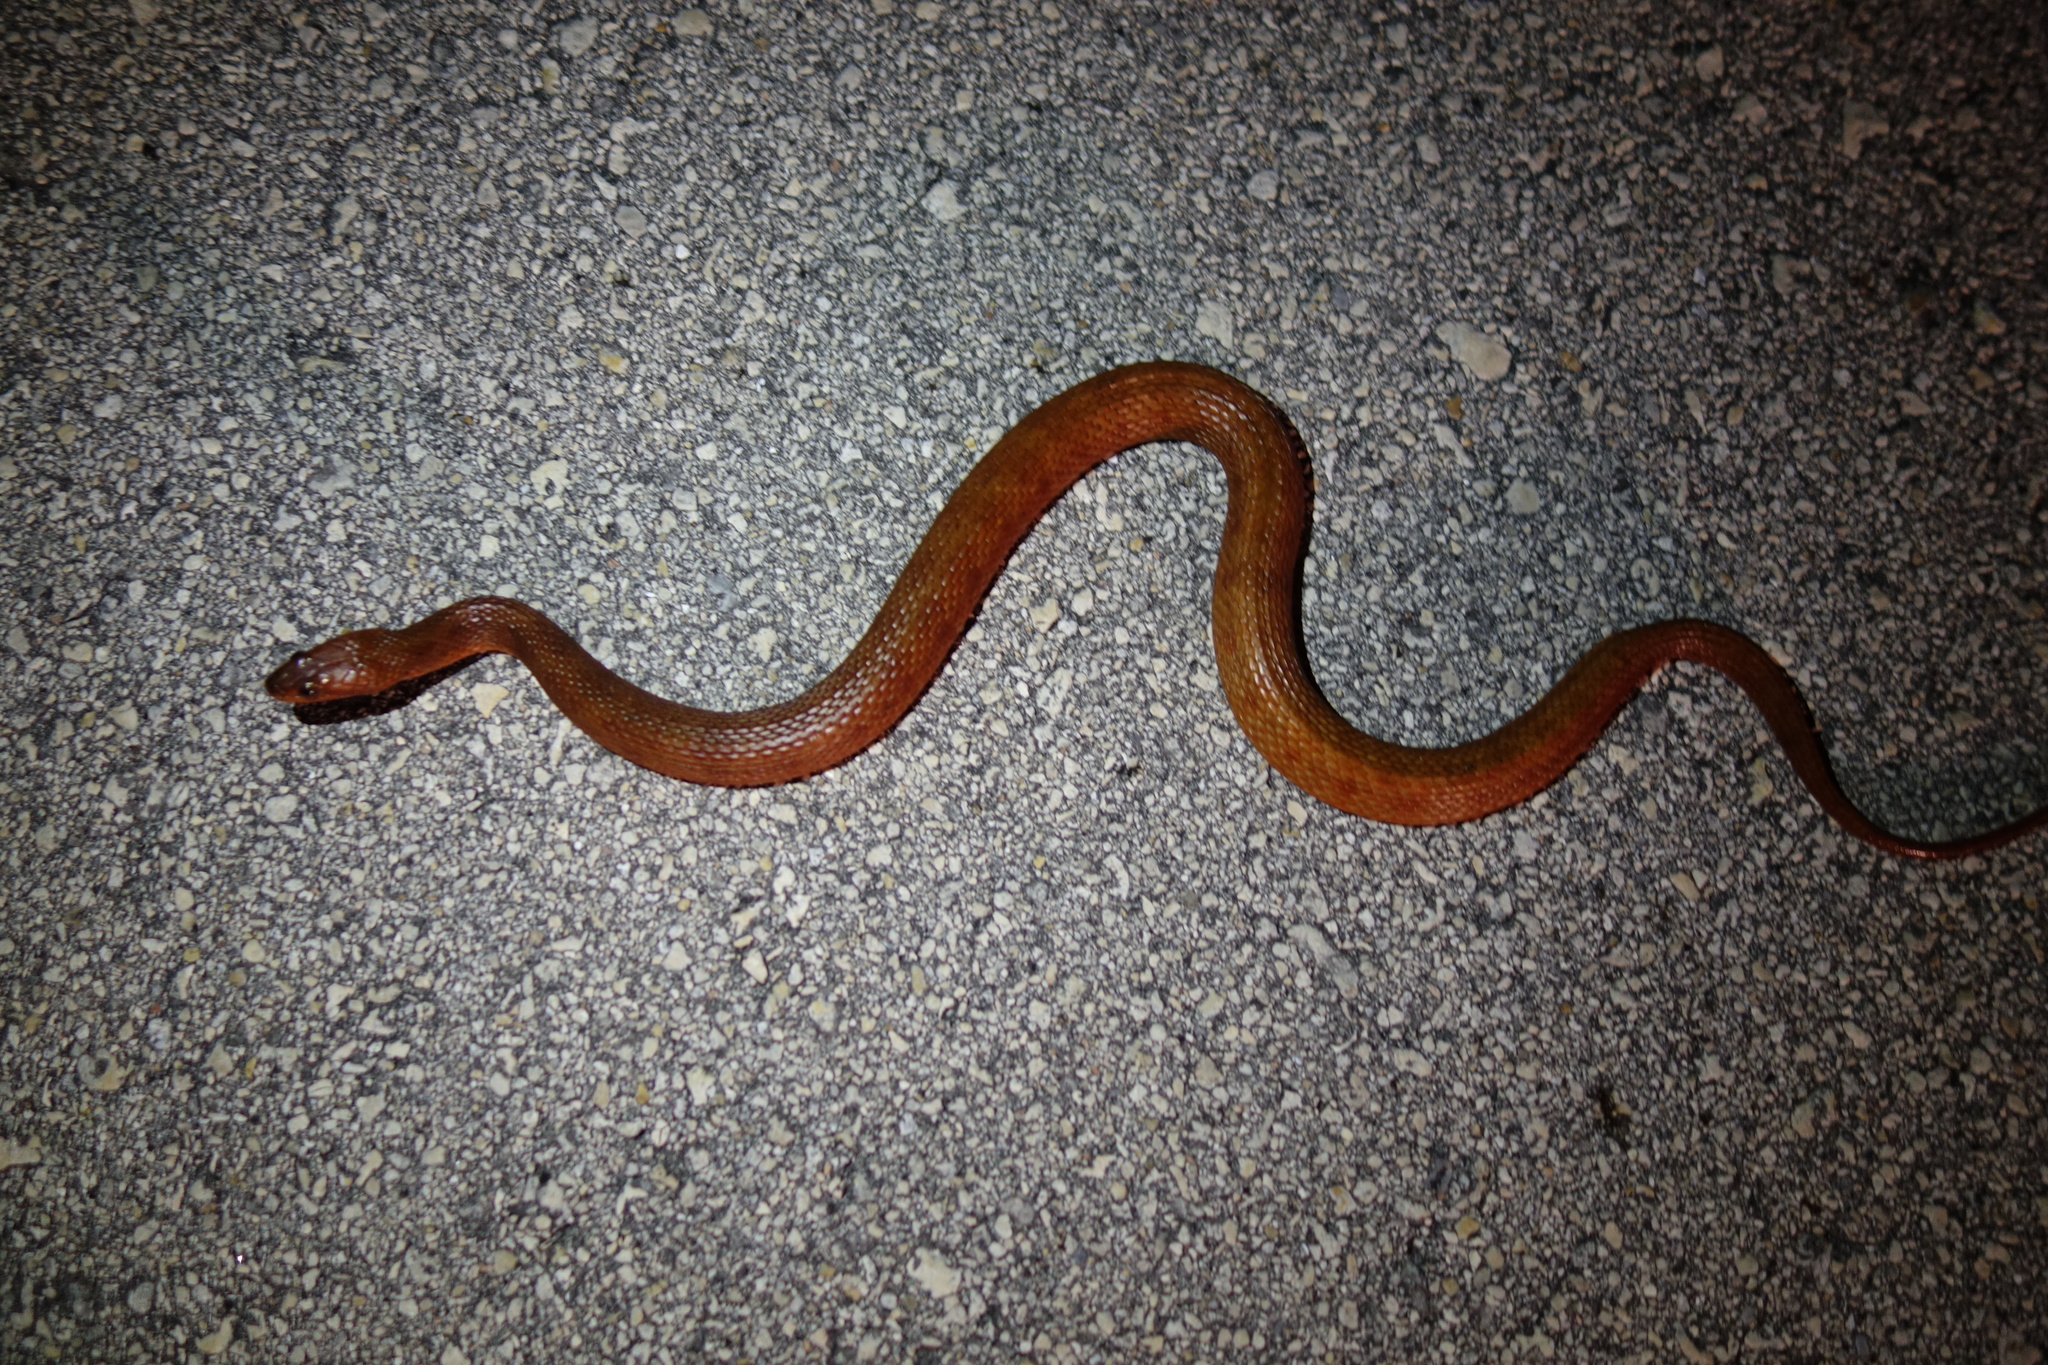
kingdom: Animalia
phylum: Chordata
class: Squamata
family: Colubridae
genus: Nerodia
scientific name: Nerodia clarkii
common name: Atlantic saltmarsh snake
